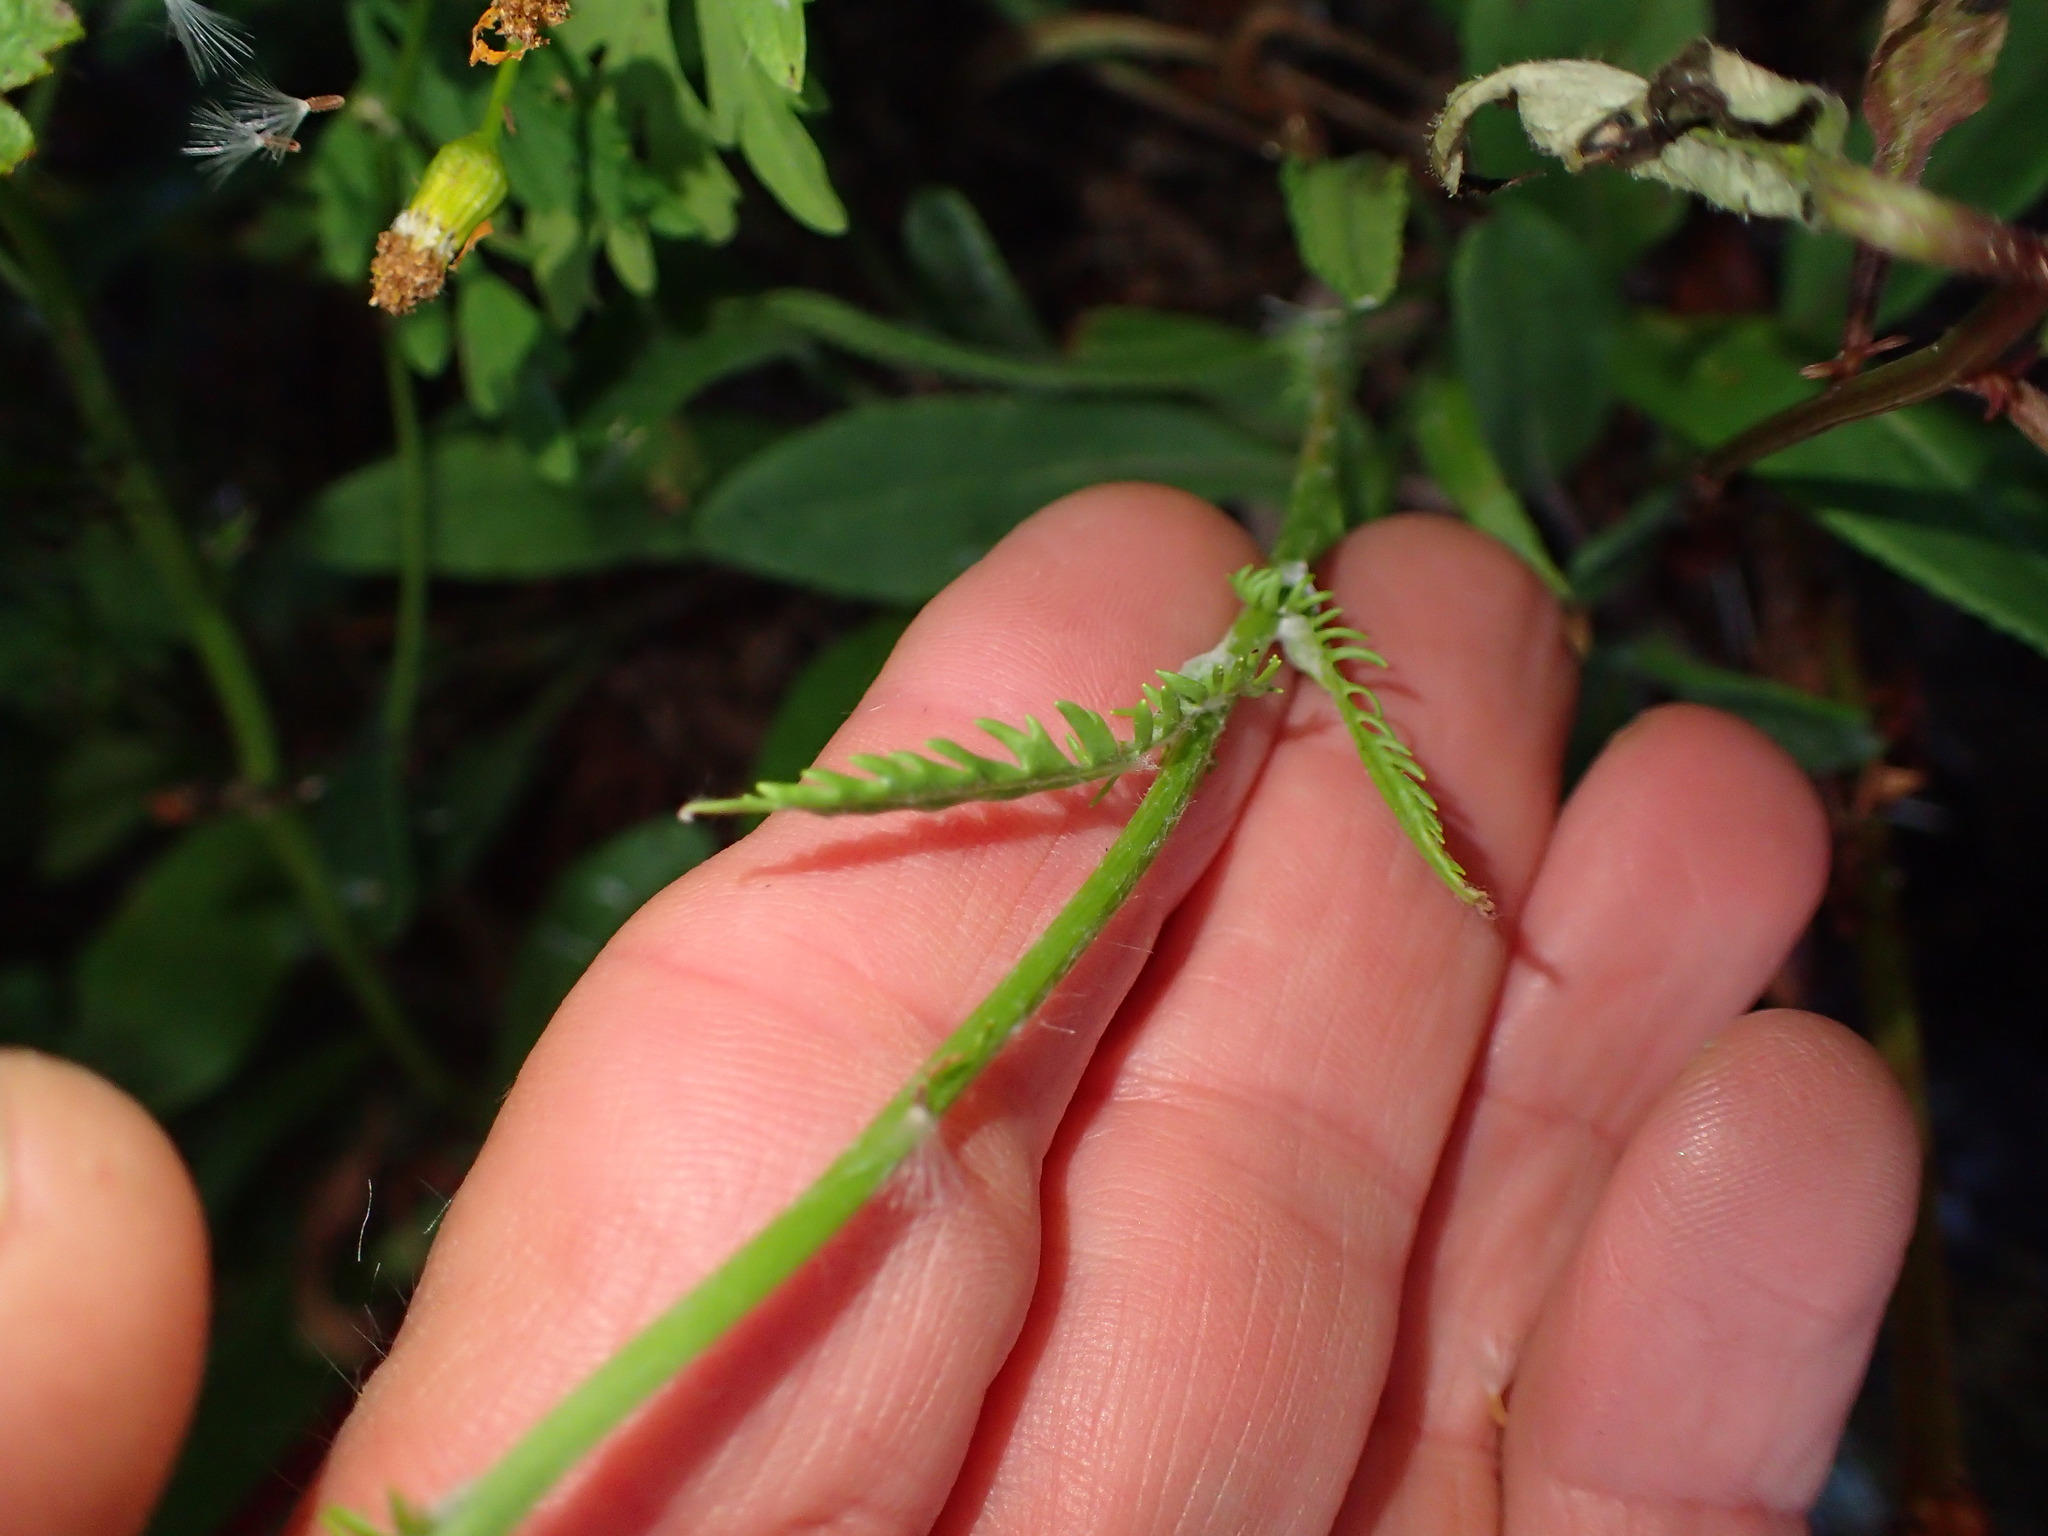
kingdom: Plantae
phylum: Tracheophyta
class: Magnoliopsida
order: Asterales
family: Asteraceae
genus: Packera
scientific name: Packera anonyma
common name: Small ragwort
